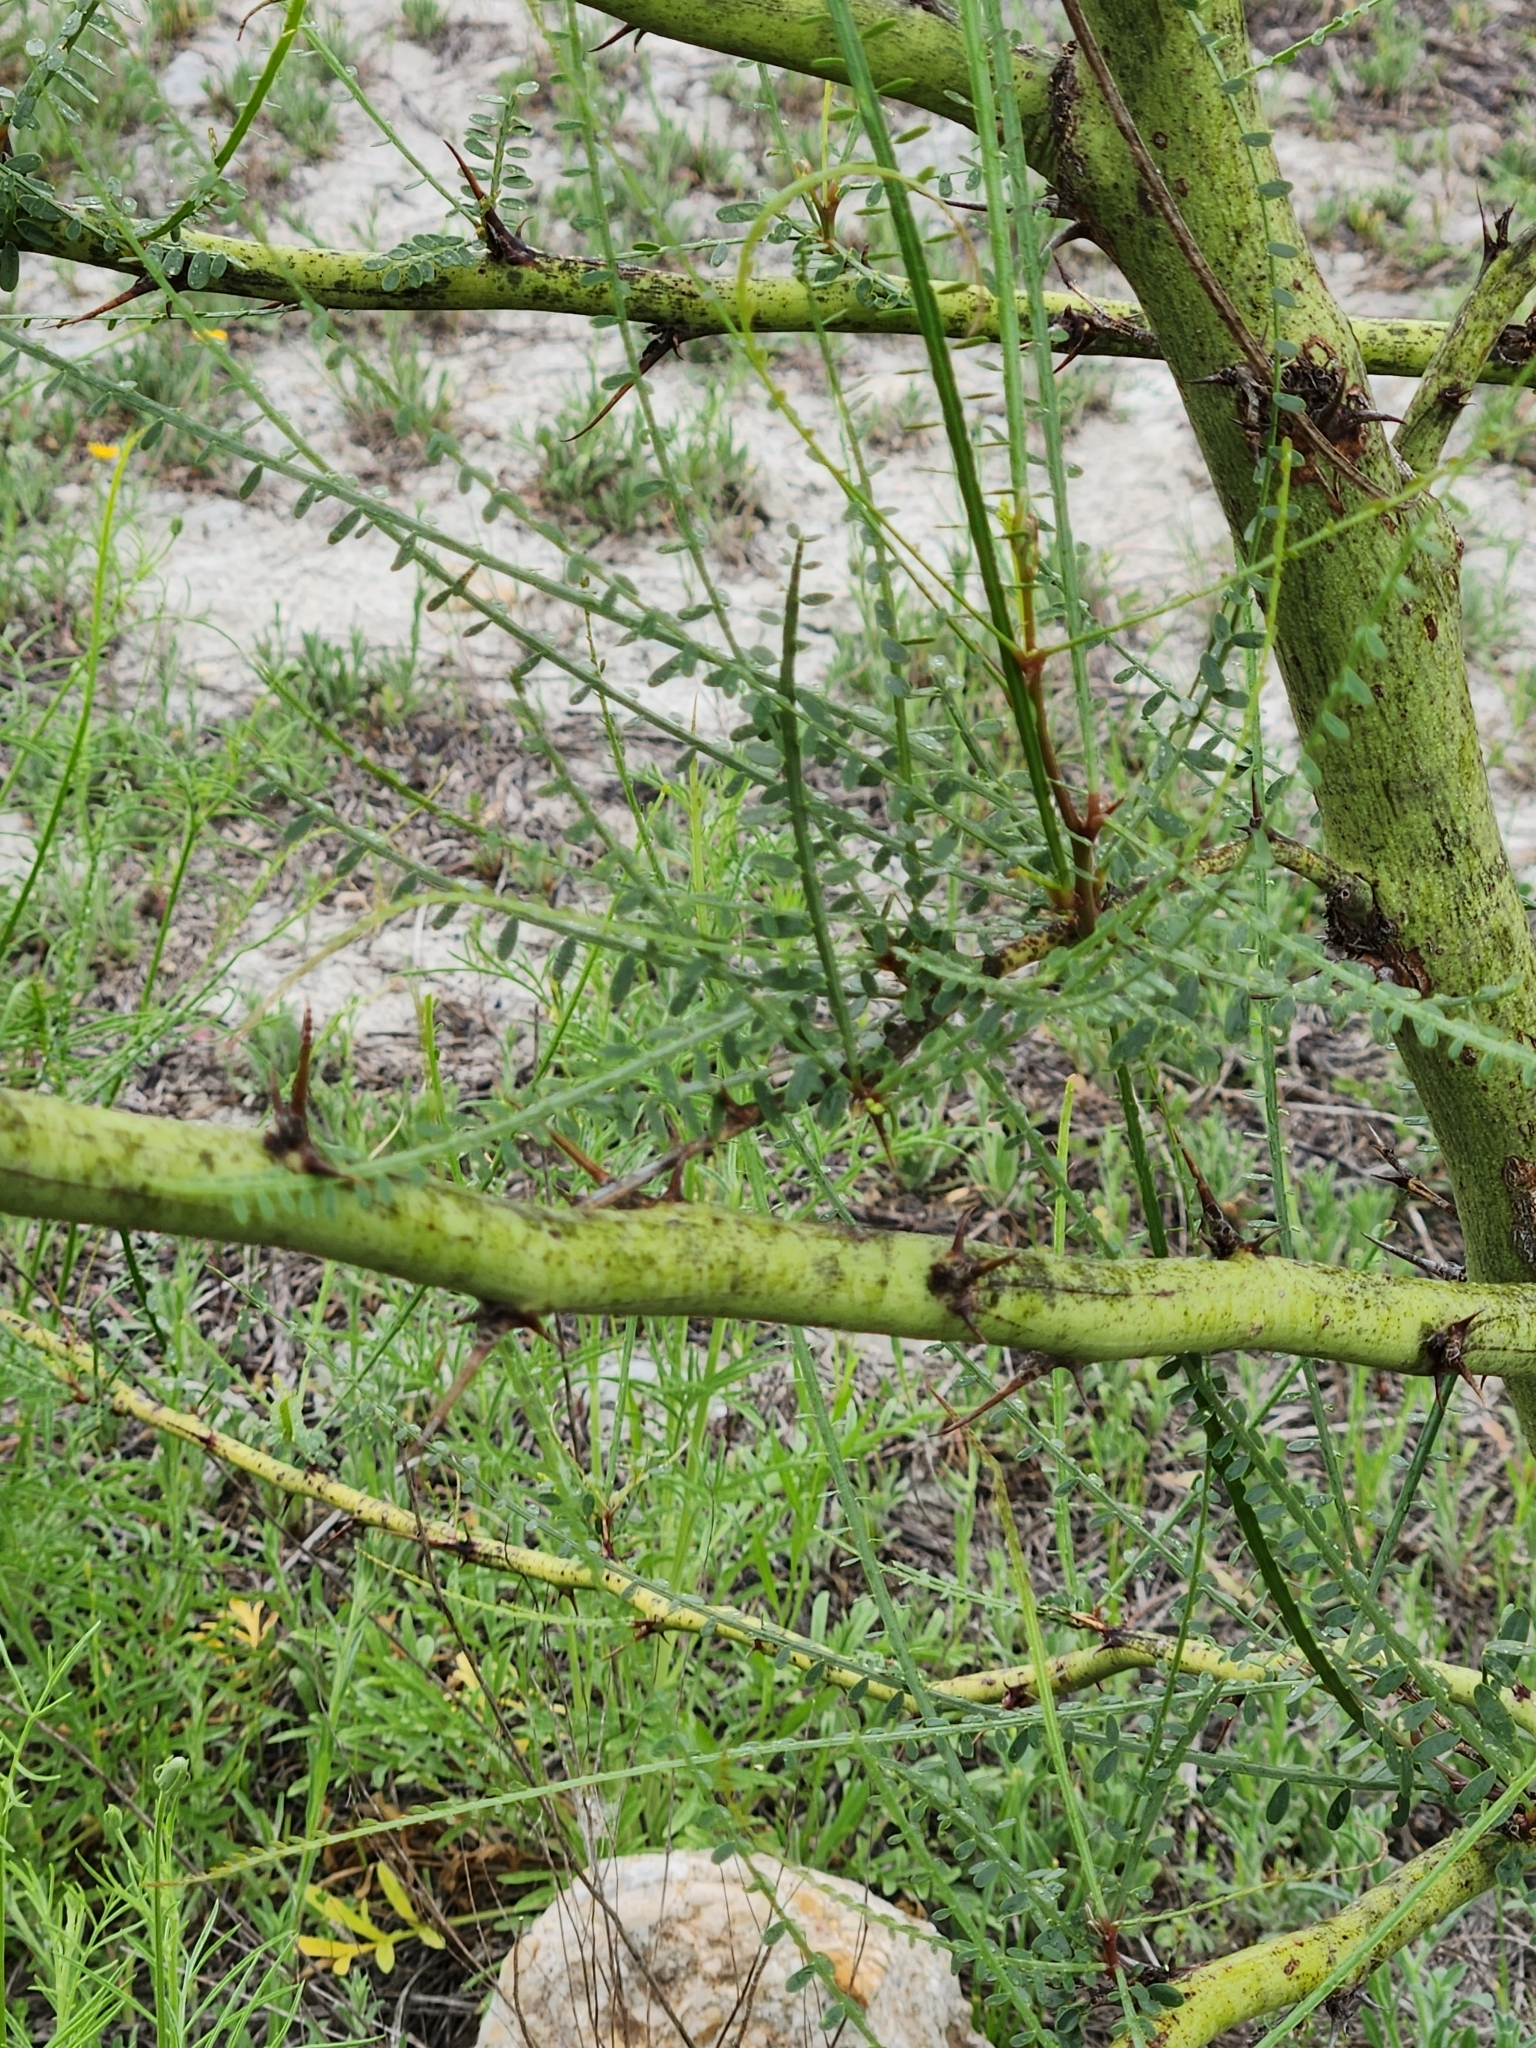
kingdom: Plantae
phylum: Tracheophyta
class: Magnoliopsida
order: Fabales
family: Fabaceae
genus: Parkinsonia
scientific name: Parkinsonia aculeata
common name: Jerusalem thorn
